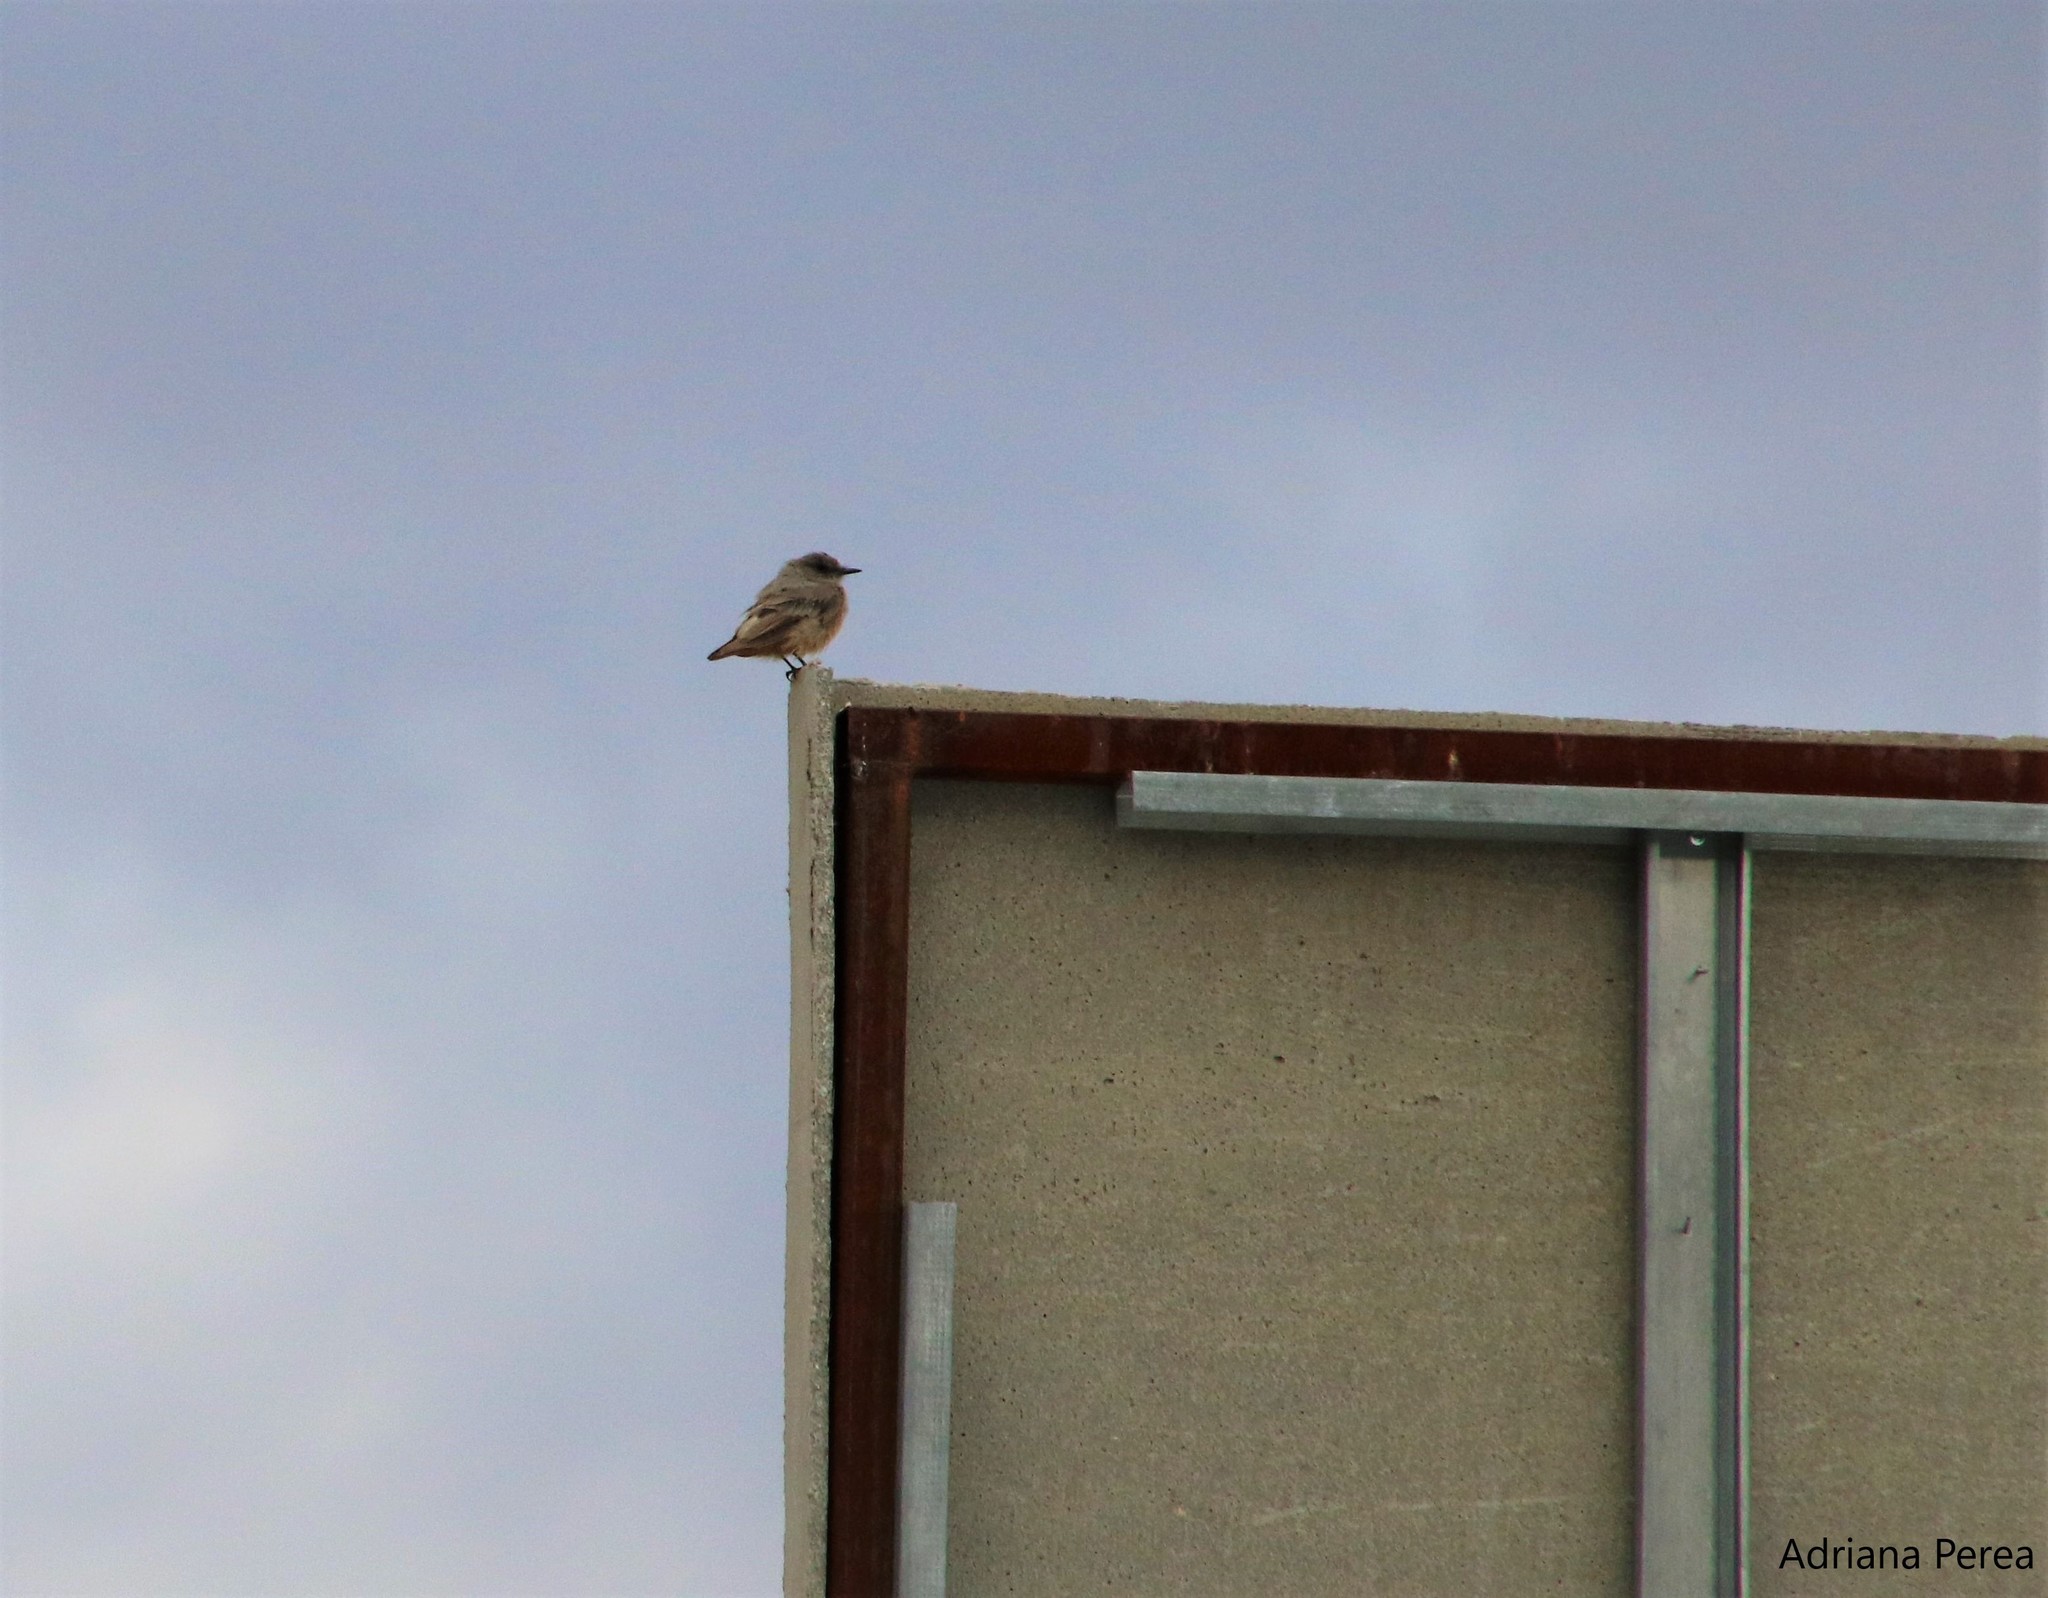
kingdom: Animalia
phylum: Chordata
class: Aves
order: Passeriformes
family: Tyrannidae
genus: Sayornis
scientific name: Sayornis saya
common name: Say's phoebe
